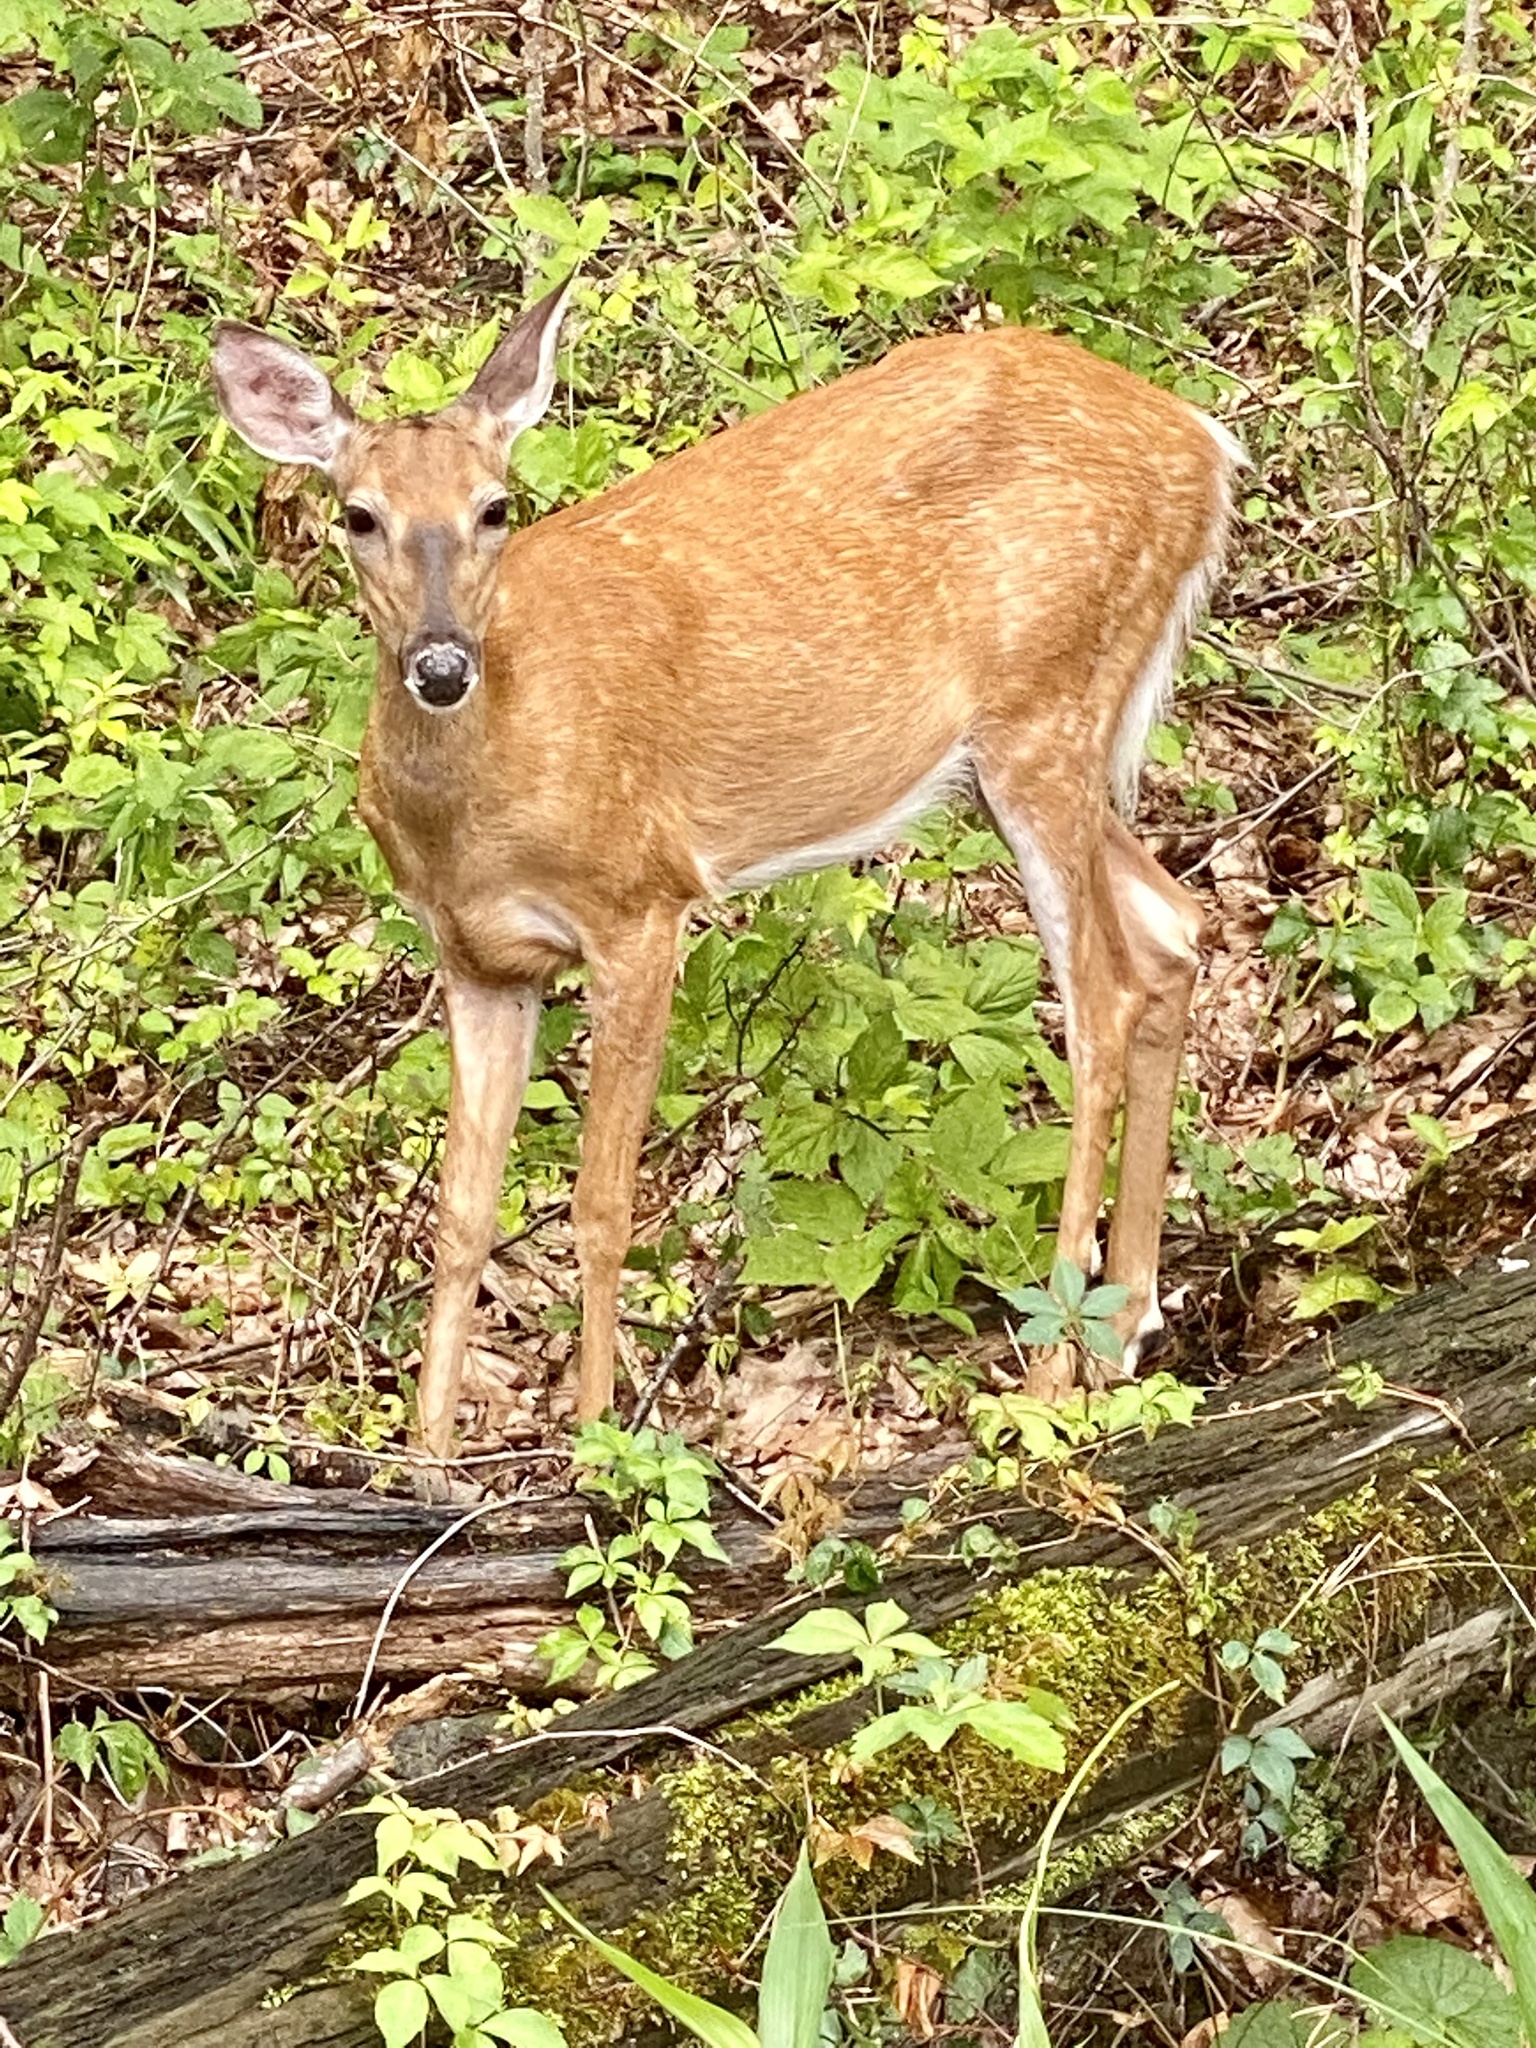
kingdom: Animalia
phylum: Chordata
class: Mammalia
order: Artiodactyla
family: Cervidae
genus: Odocoileus
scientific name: Odocoileus virginianus
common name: White-tailed deer
